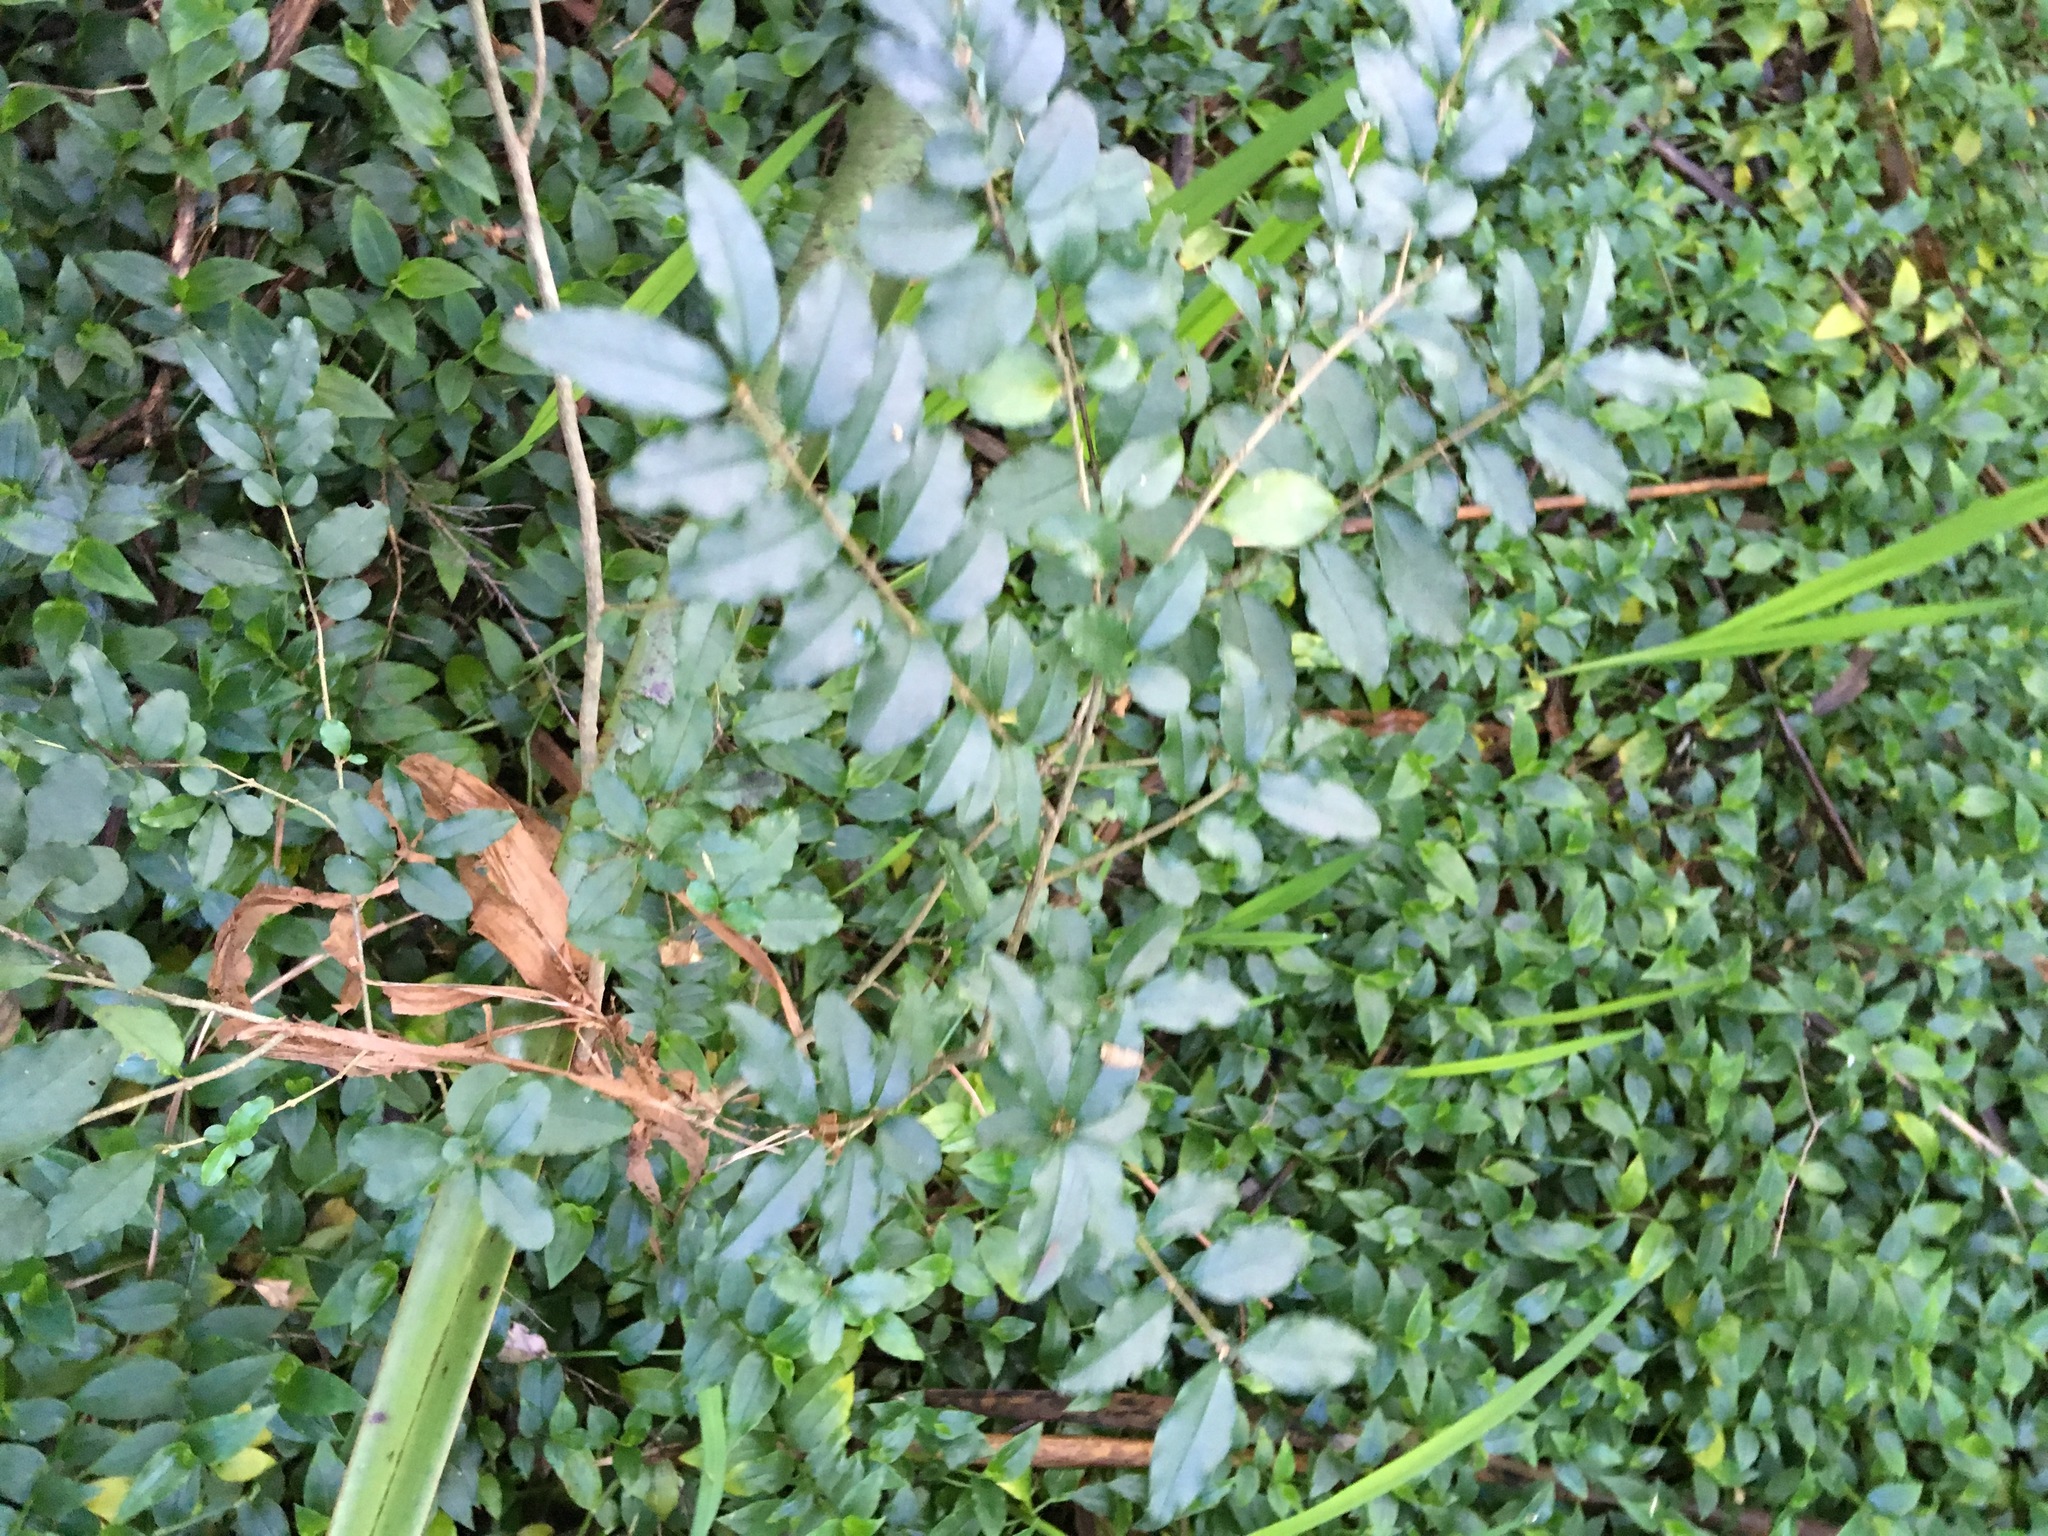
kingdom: Plantae
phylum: Tracheophyta
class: Magnoliopsida
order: Lamiales
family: Oleaceae
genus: Ligustrum
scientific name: Ligustrum sinense
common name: Chinese privet
